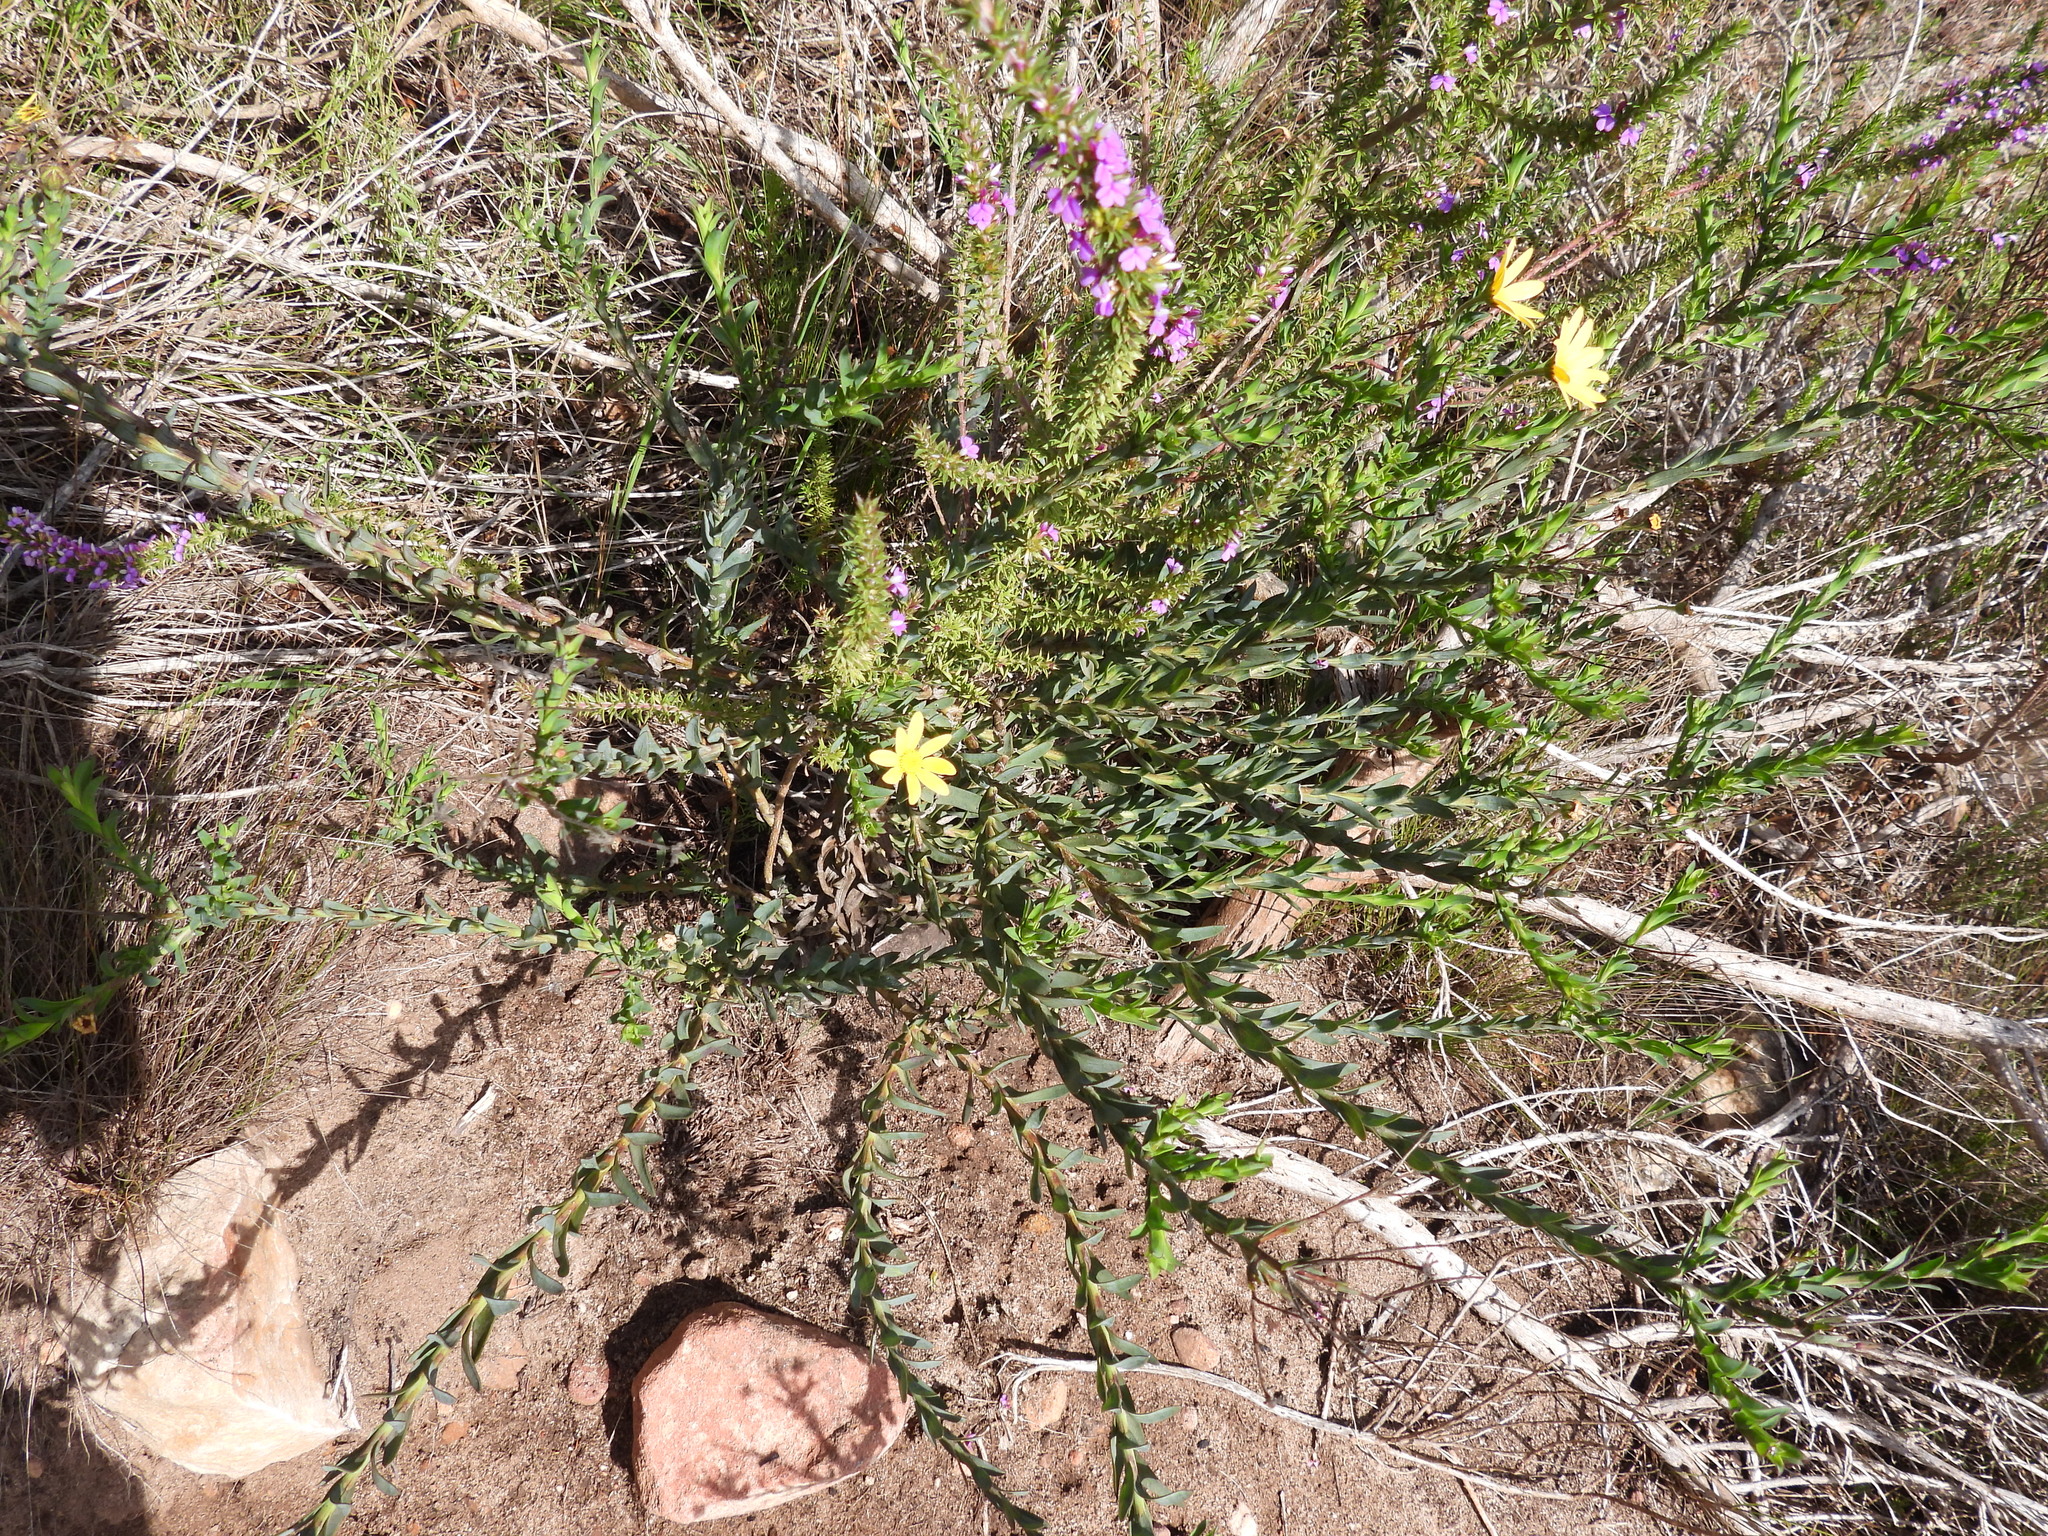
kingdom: Plantae
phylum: Tracheophyta
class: Magnoliopsida
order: Asterales
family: Asteraceae
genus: Osteospermum
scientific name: Osteospermum polygaloides
